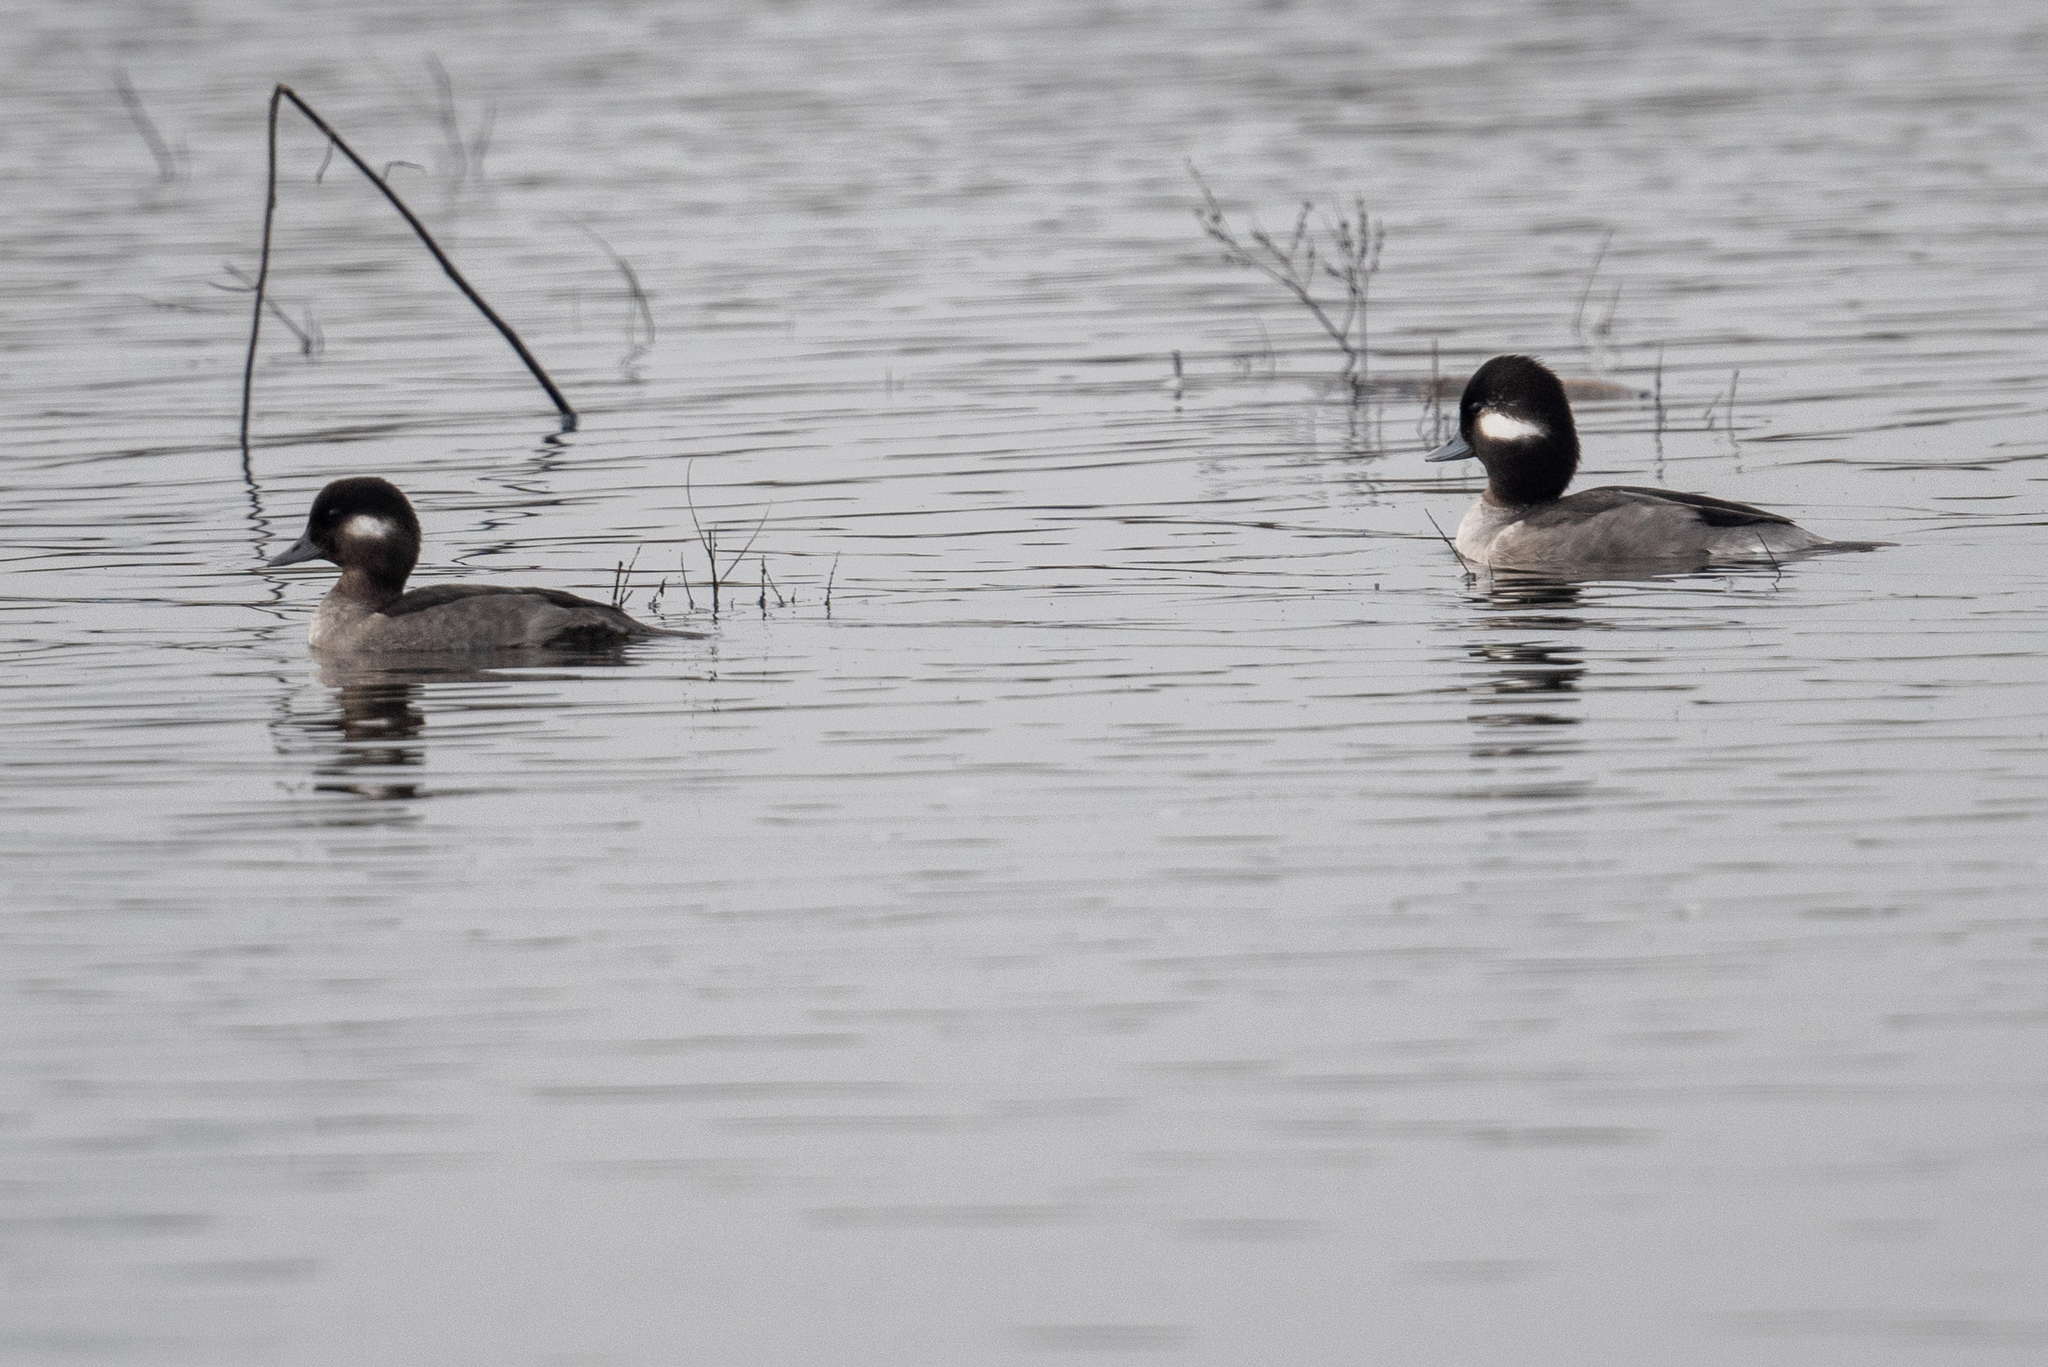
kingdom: Animalia
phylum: Chordata
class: Aves
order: Anseriformes
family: Anatidae
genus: Bucephala
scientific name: Bucephala albeola
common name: Bufflehead
